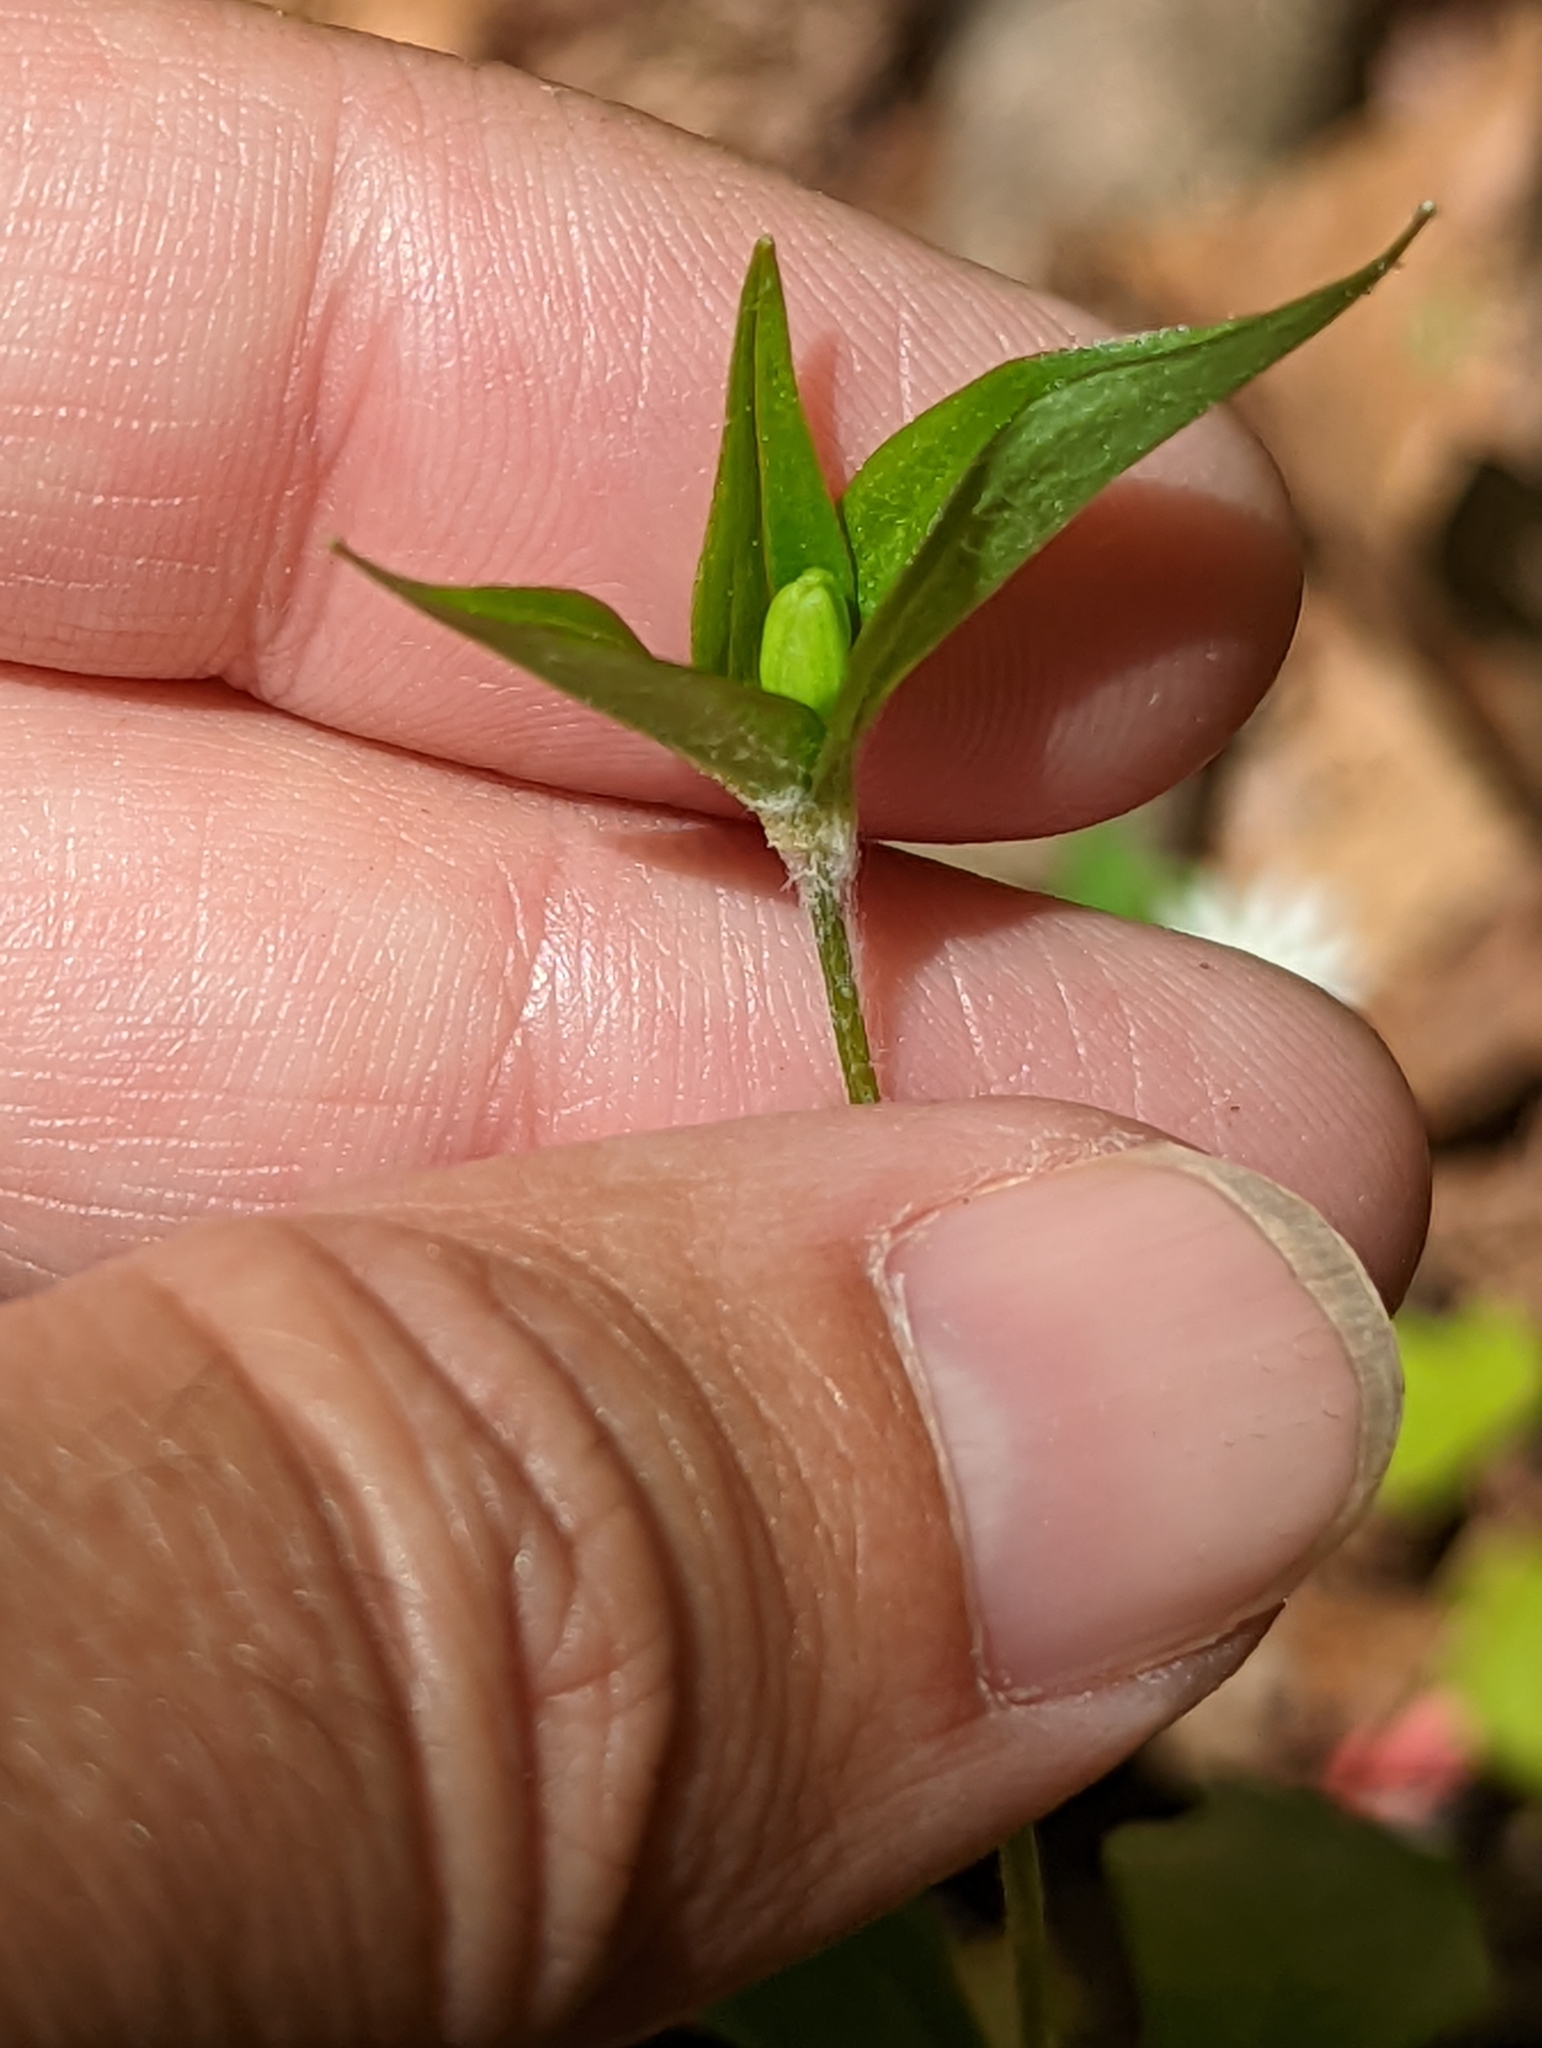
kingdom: Plantae
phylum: Tracheophyta
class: Liliopsida
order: Liliales
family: Liliaceae
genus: Medeola
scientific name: Medeola virginiana
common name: Indian cucumber-root
